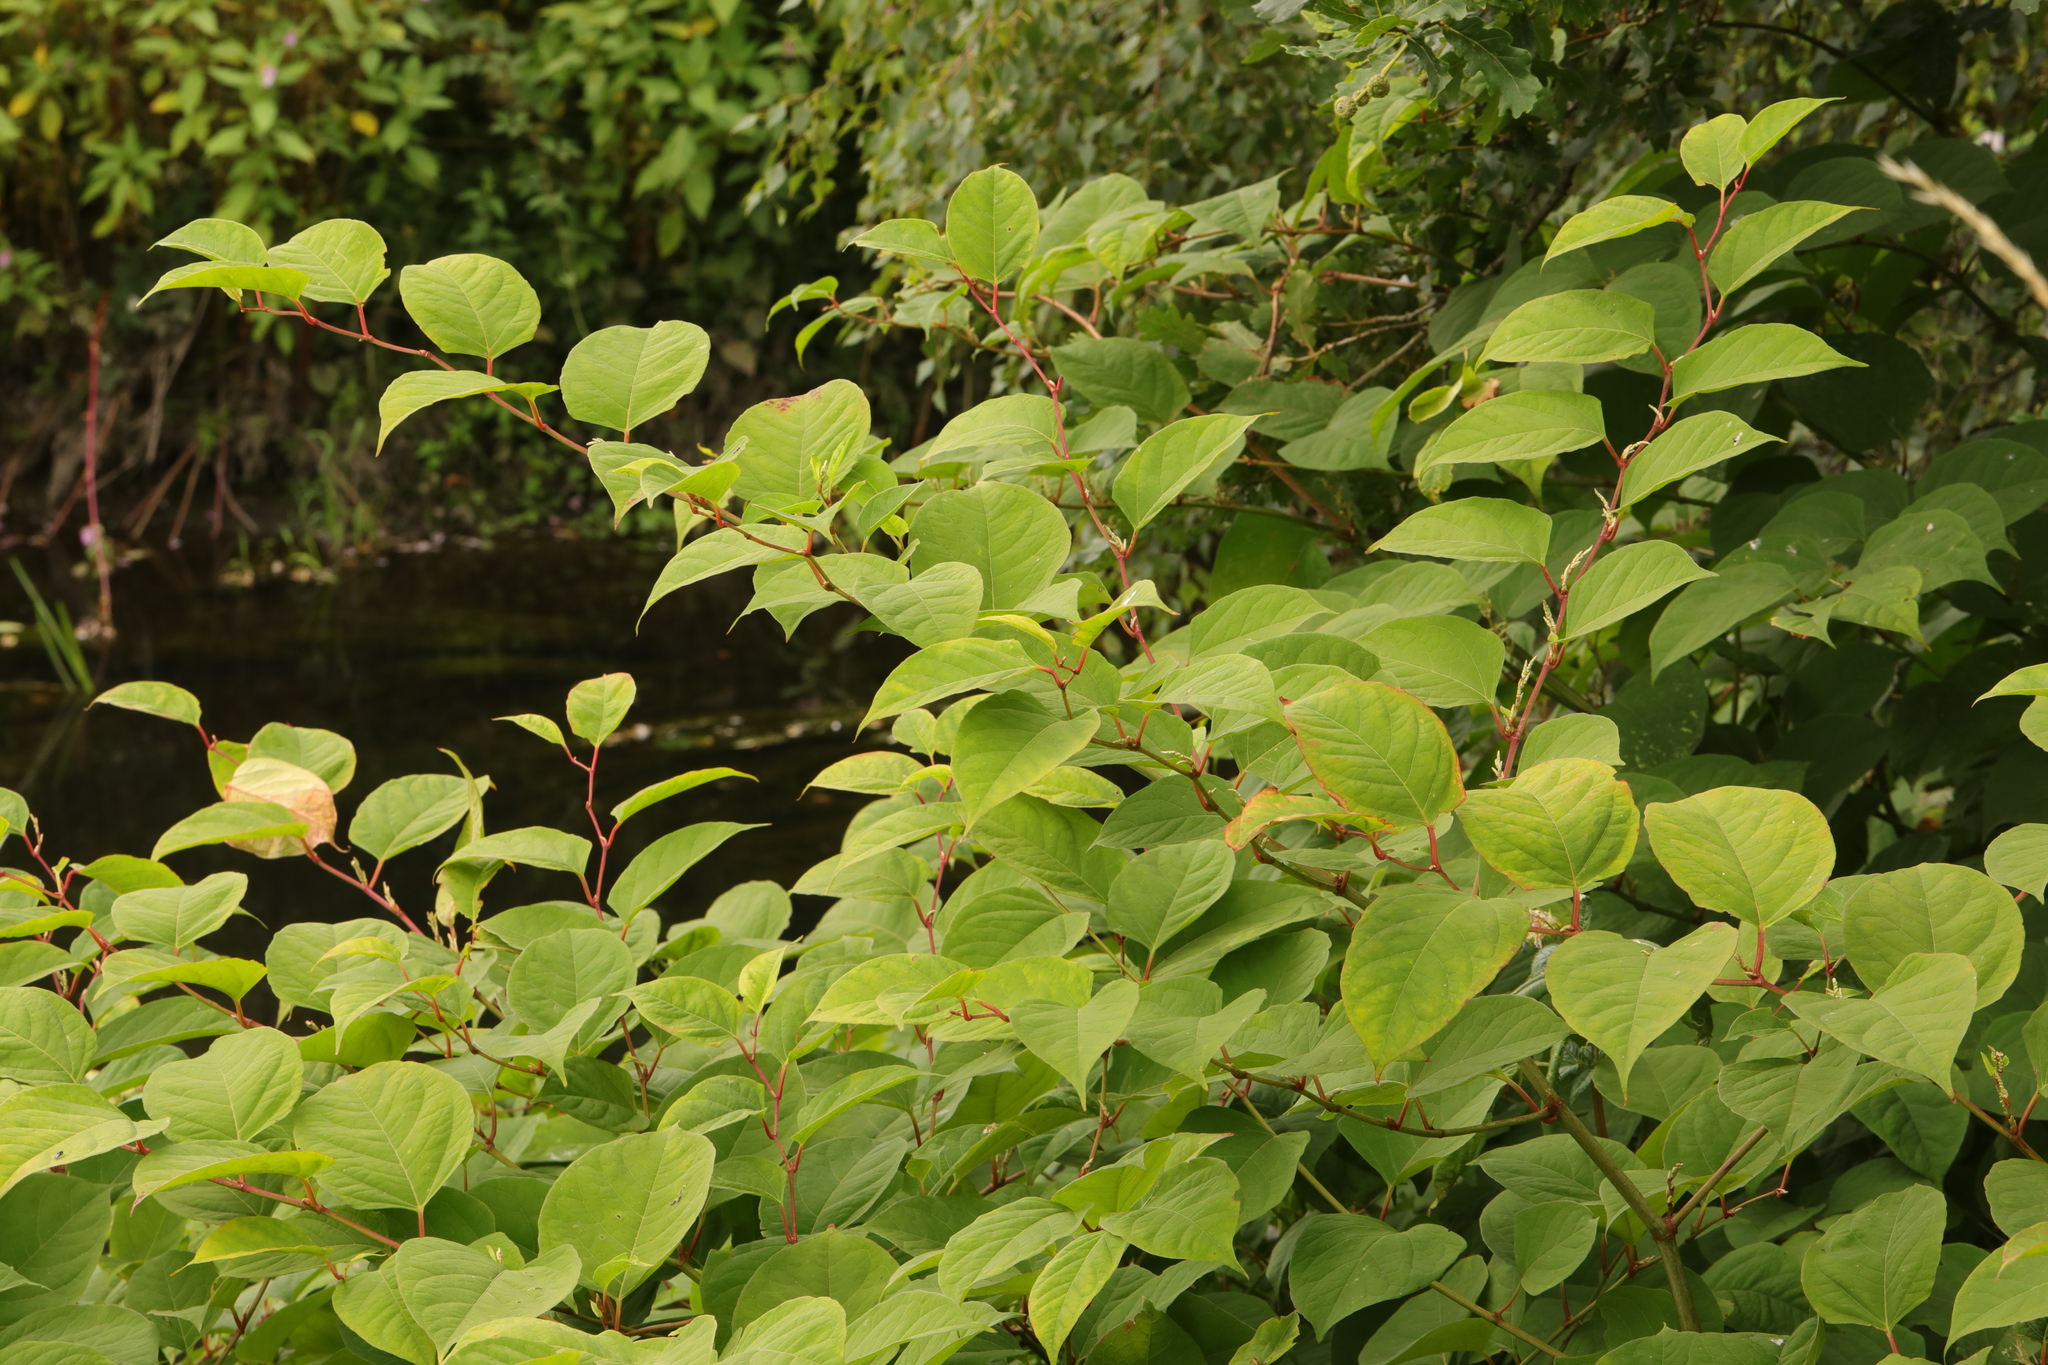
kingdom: Plantae
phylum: Tracheophyta
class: Magnoliopsida
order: Caryophyllales
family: Polygonaceae
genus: Reynoutria
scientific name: Reynoutria japonica
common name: Japanese knotweed
